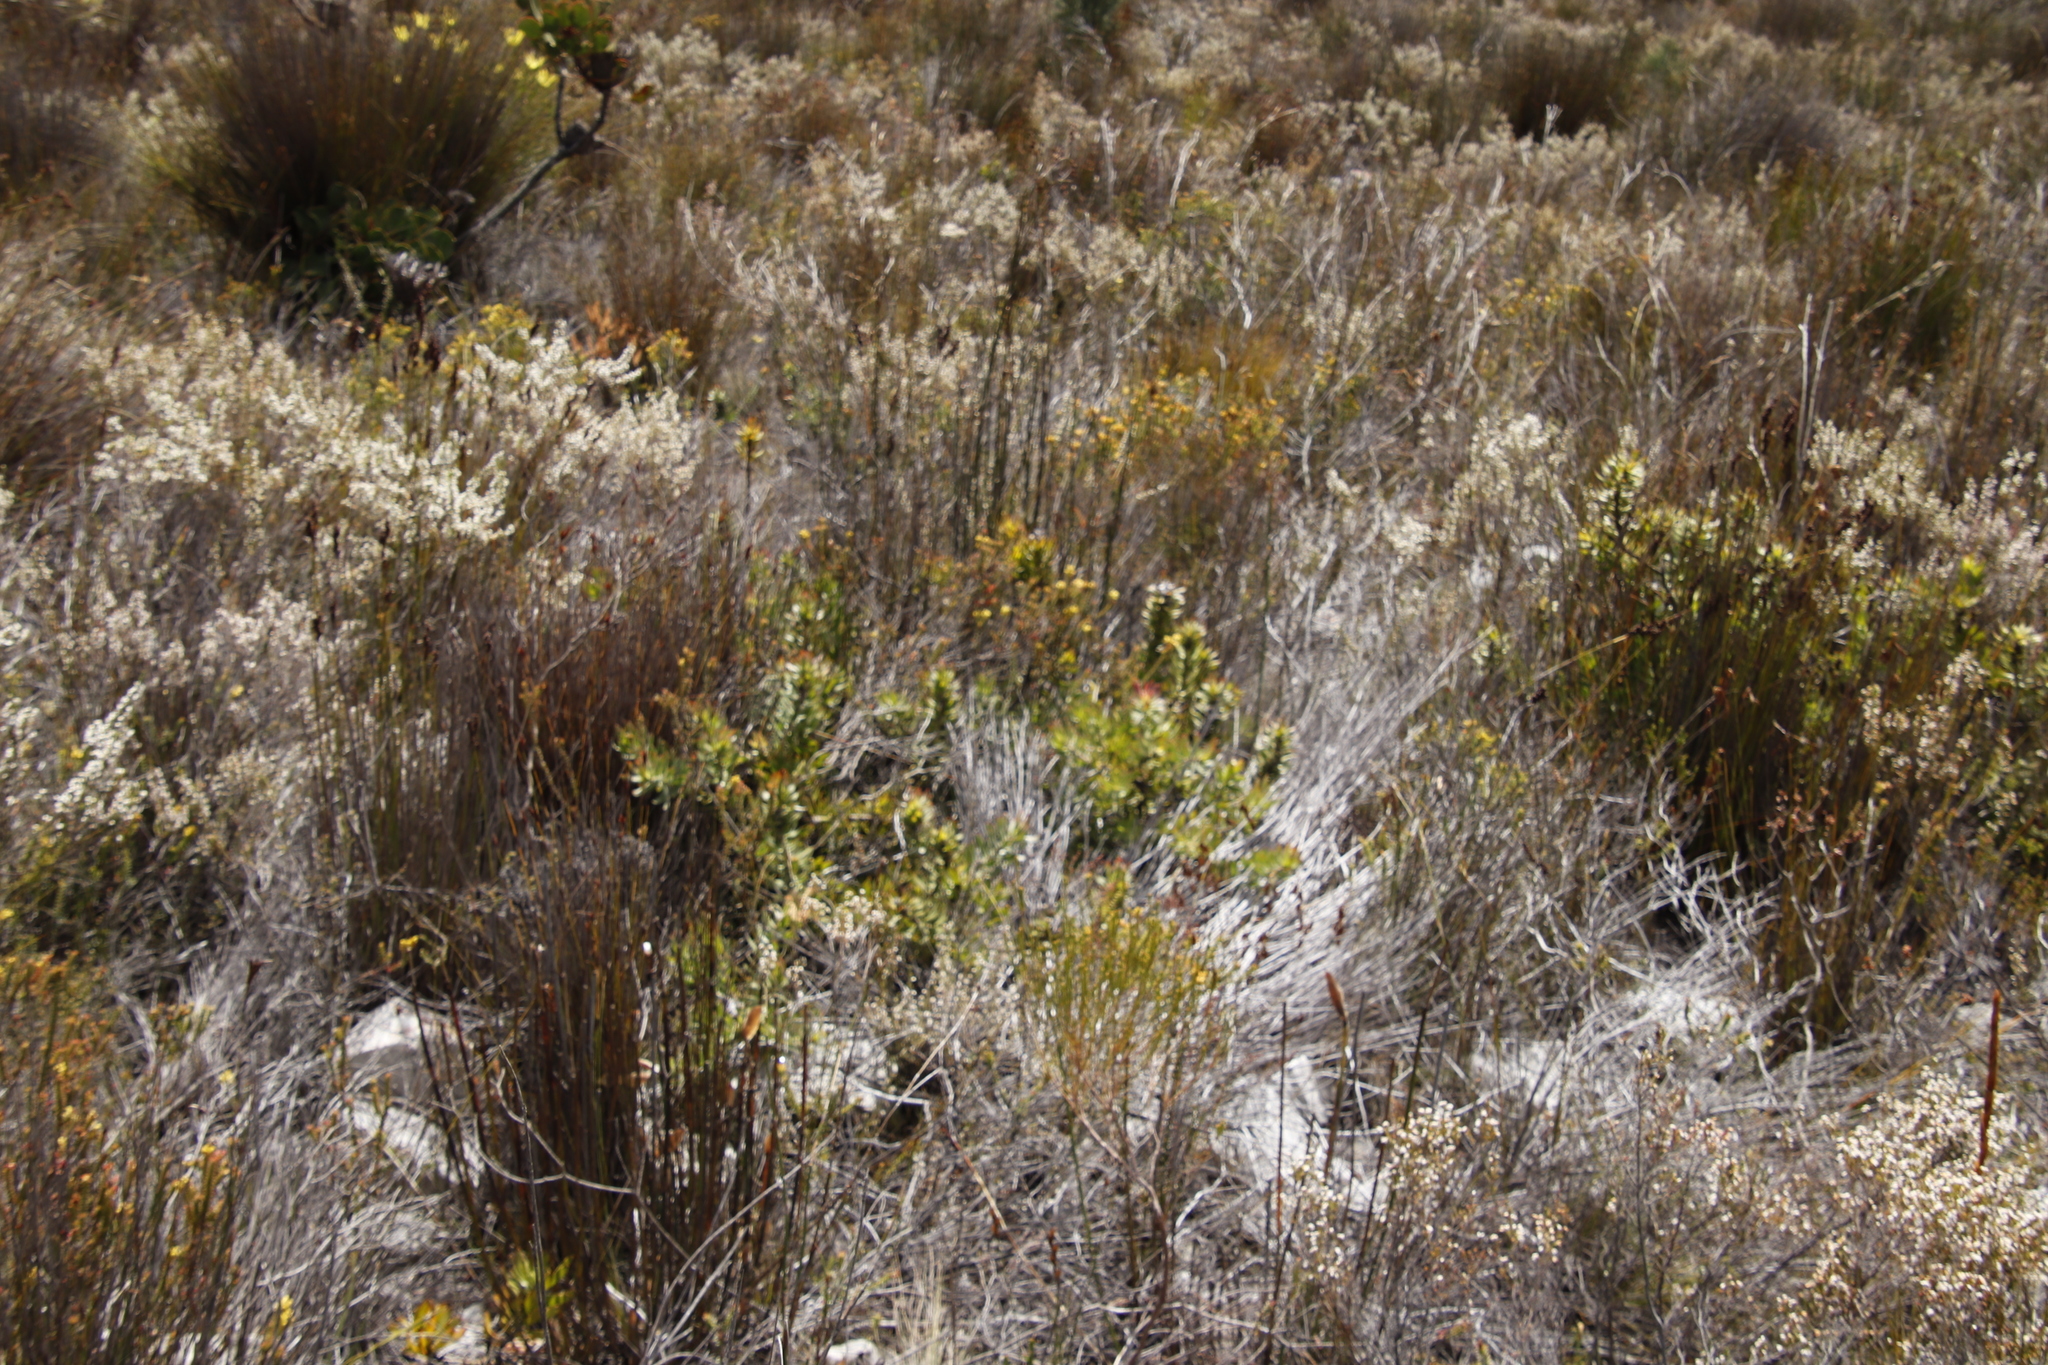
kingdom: Plantae
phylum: Tracheophyta
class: Magnoliopsida
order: Proteales
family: Proteaceae
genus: Mimetes
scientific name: Mimetes cucullatus
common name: Common pagoda
